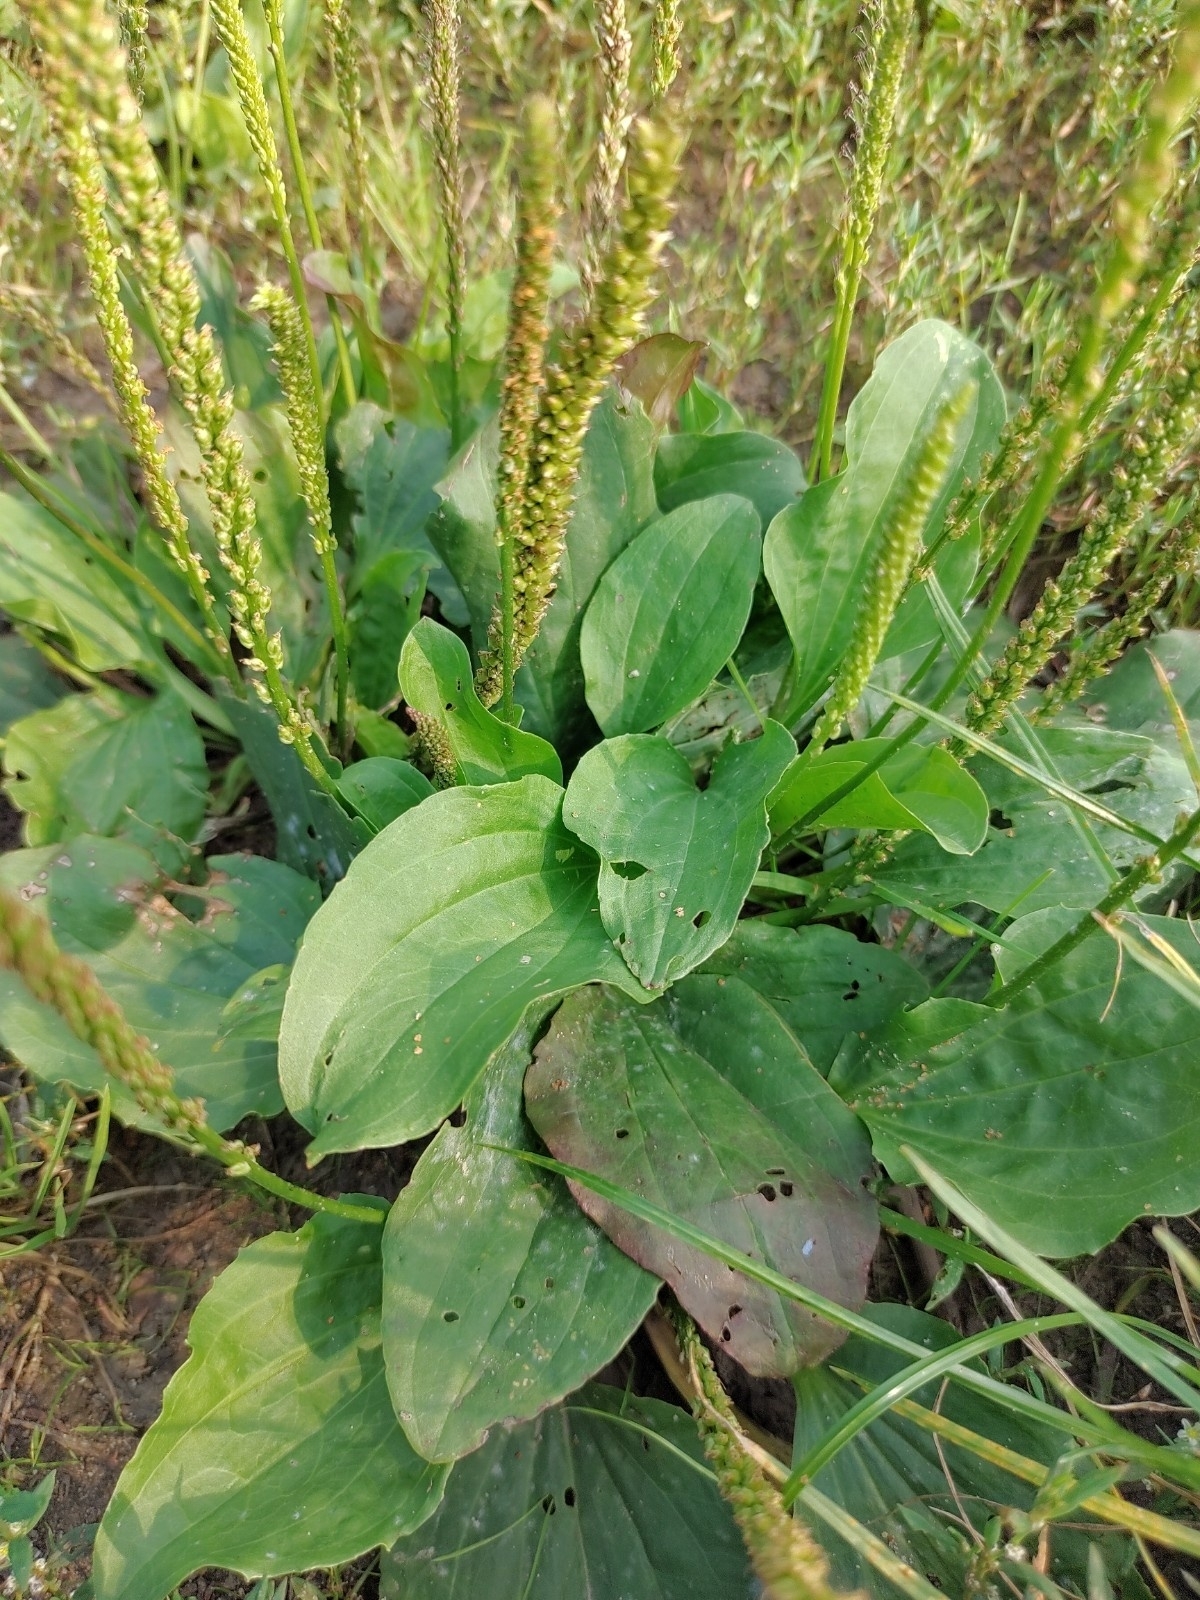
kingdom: Plantae
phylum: Tracheophyta
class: Magnoliopsida
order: Lamiales
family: Plantaginaceae
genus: Plantago
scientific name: Plantago major
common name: Common plantain
